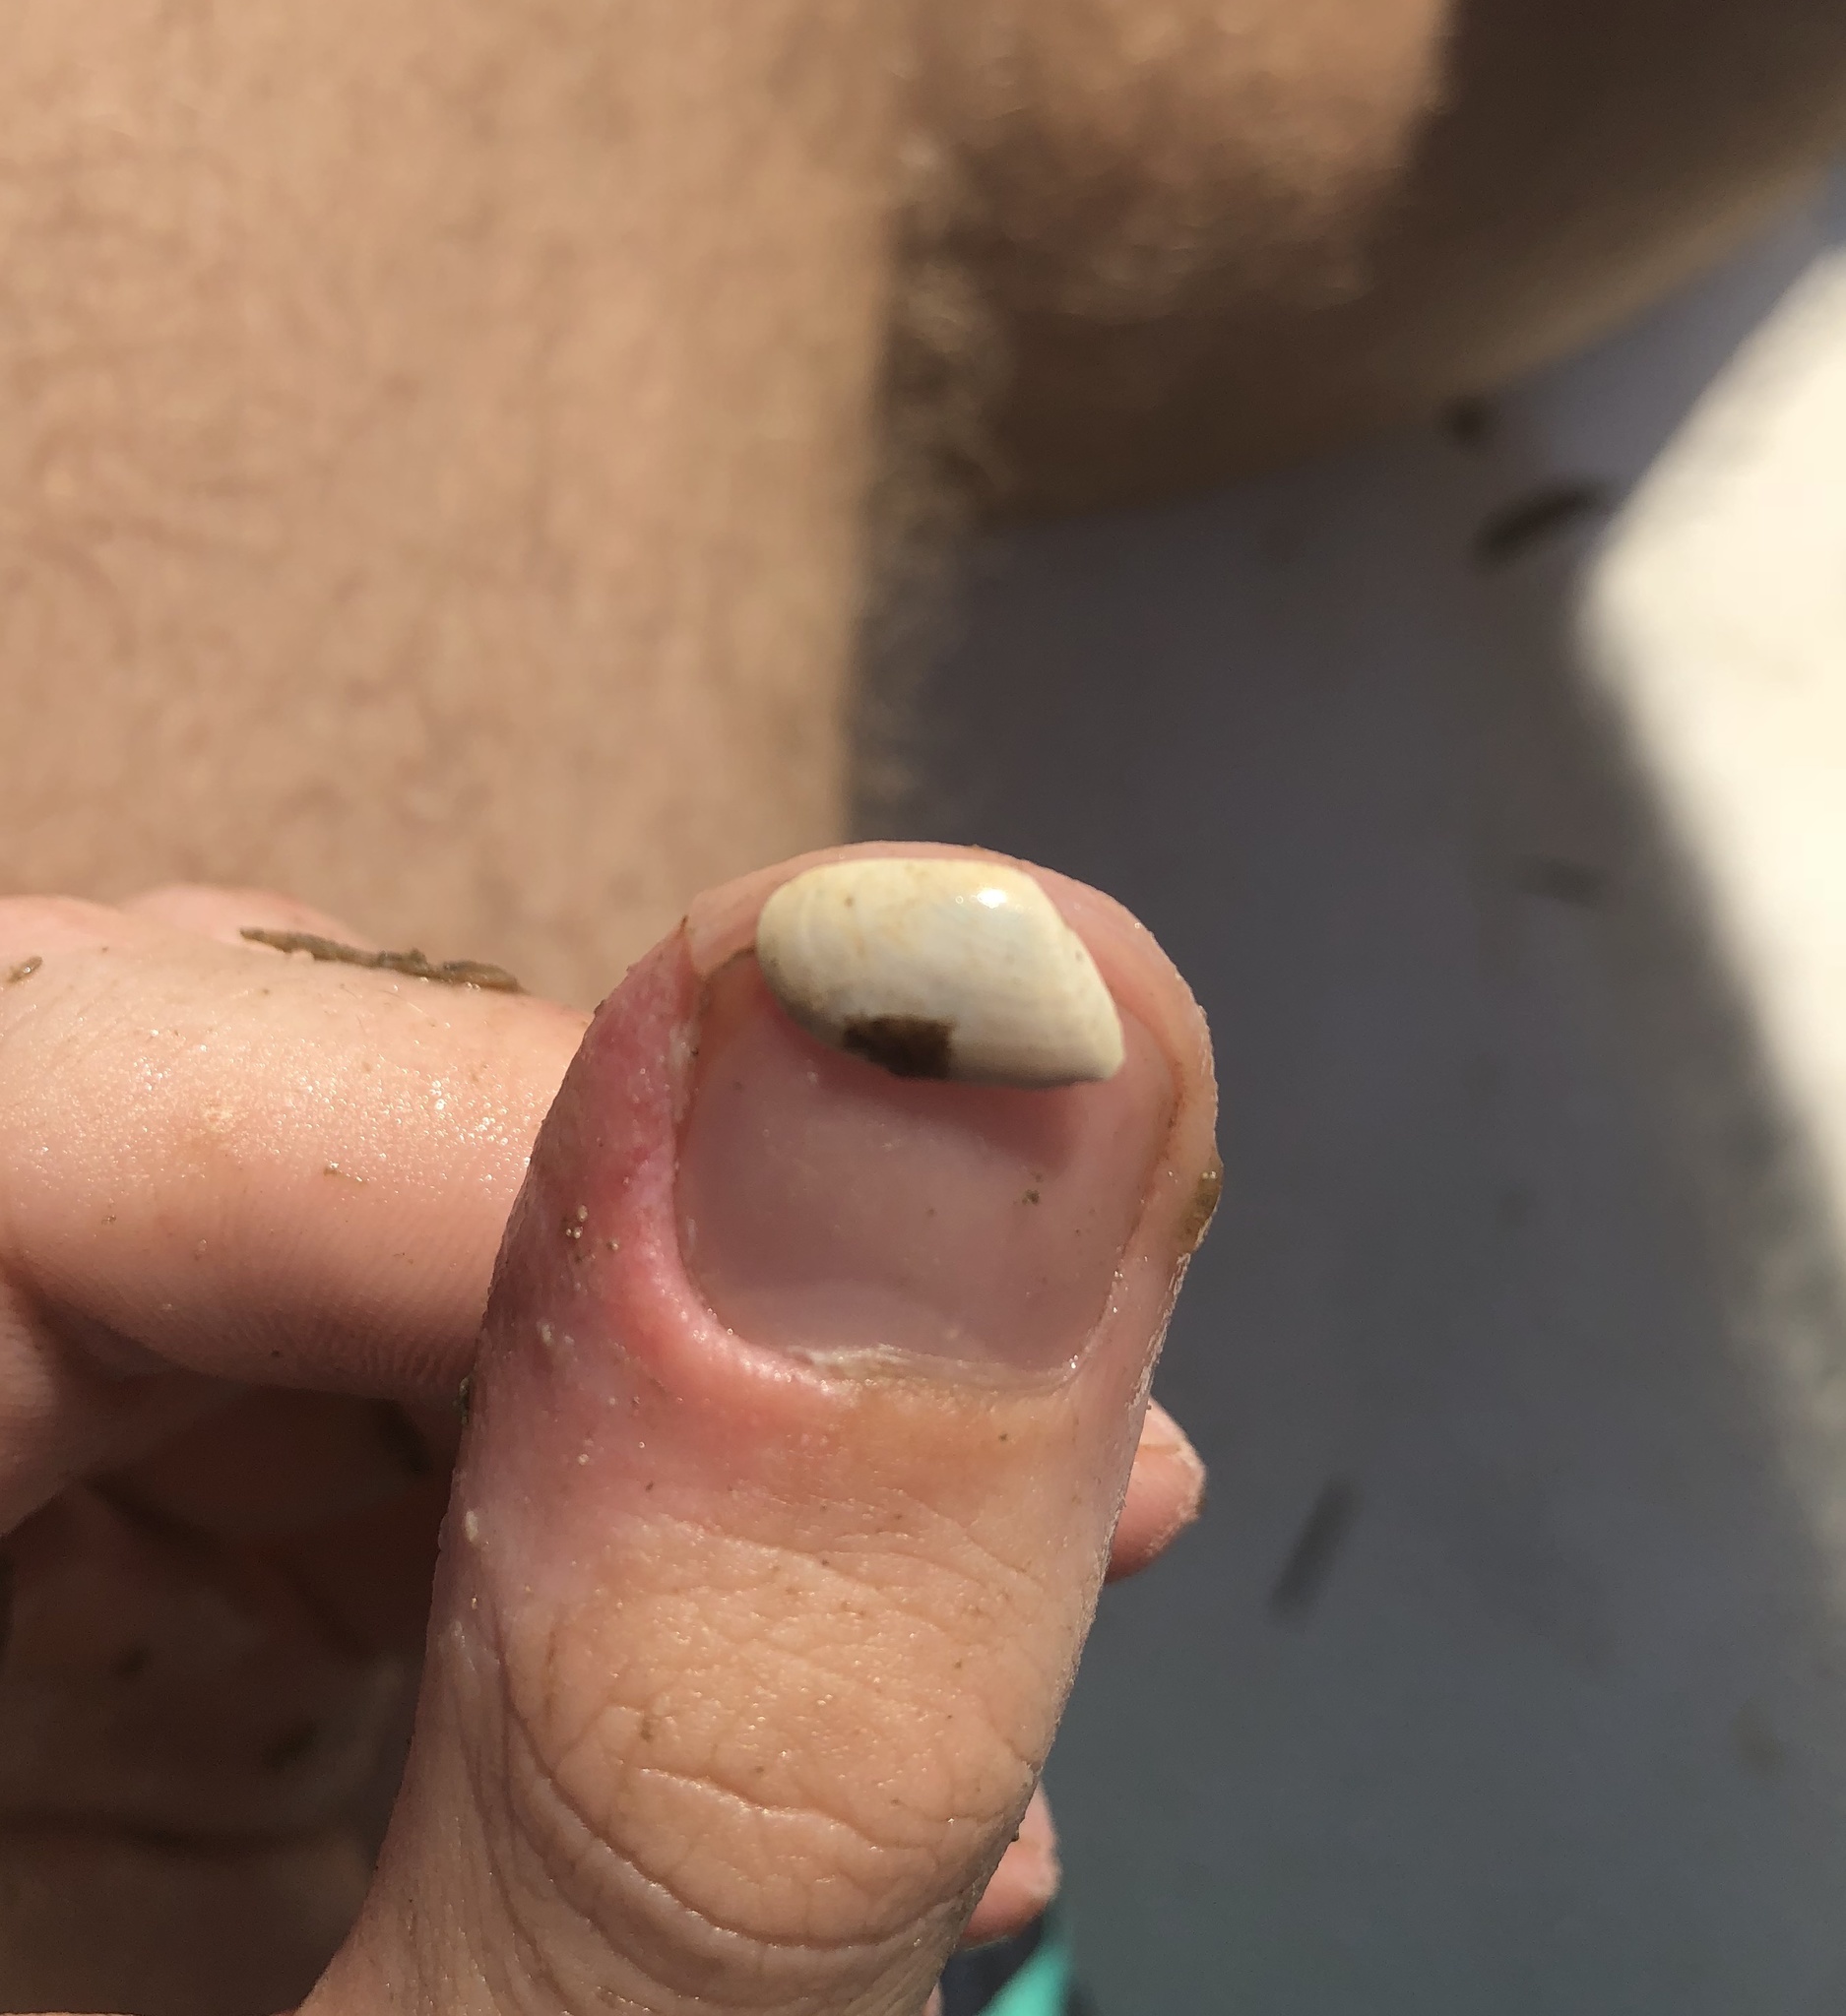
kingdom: Animalia
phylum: Mollusca
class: Bivalvia
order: Cardiida
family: Donacidae
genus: Donax
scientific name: Donax variabilis
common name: Butterfly shell
